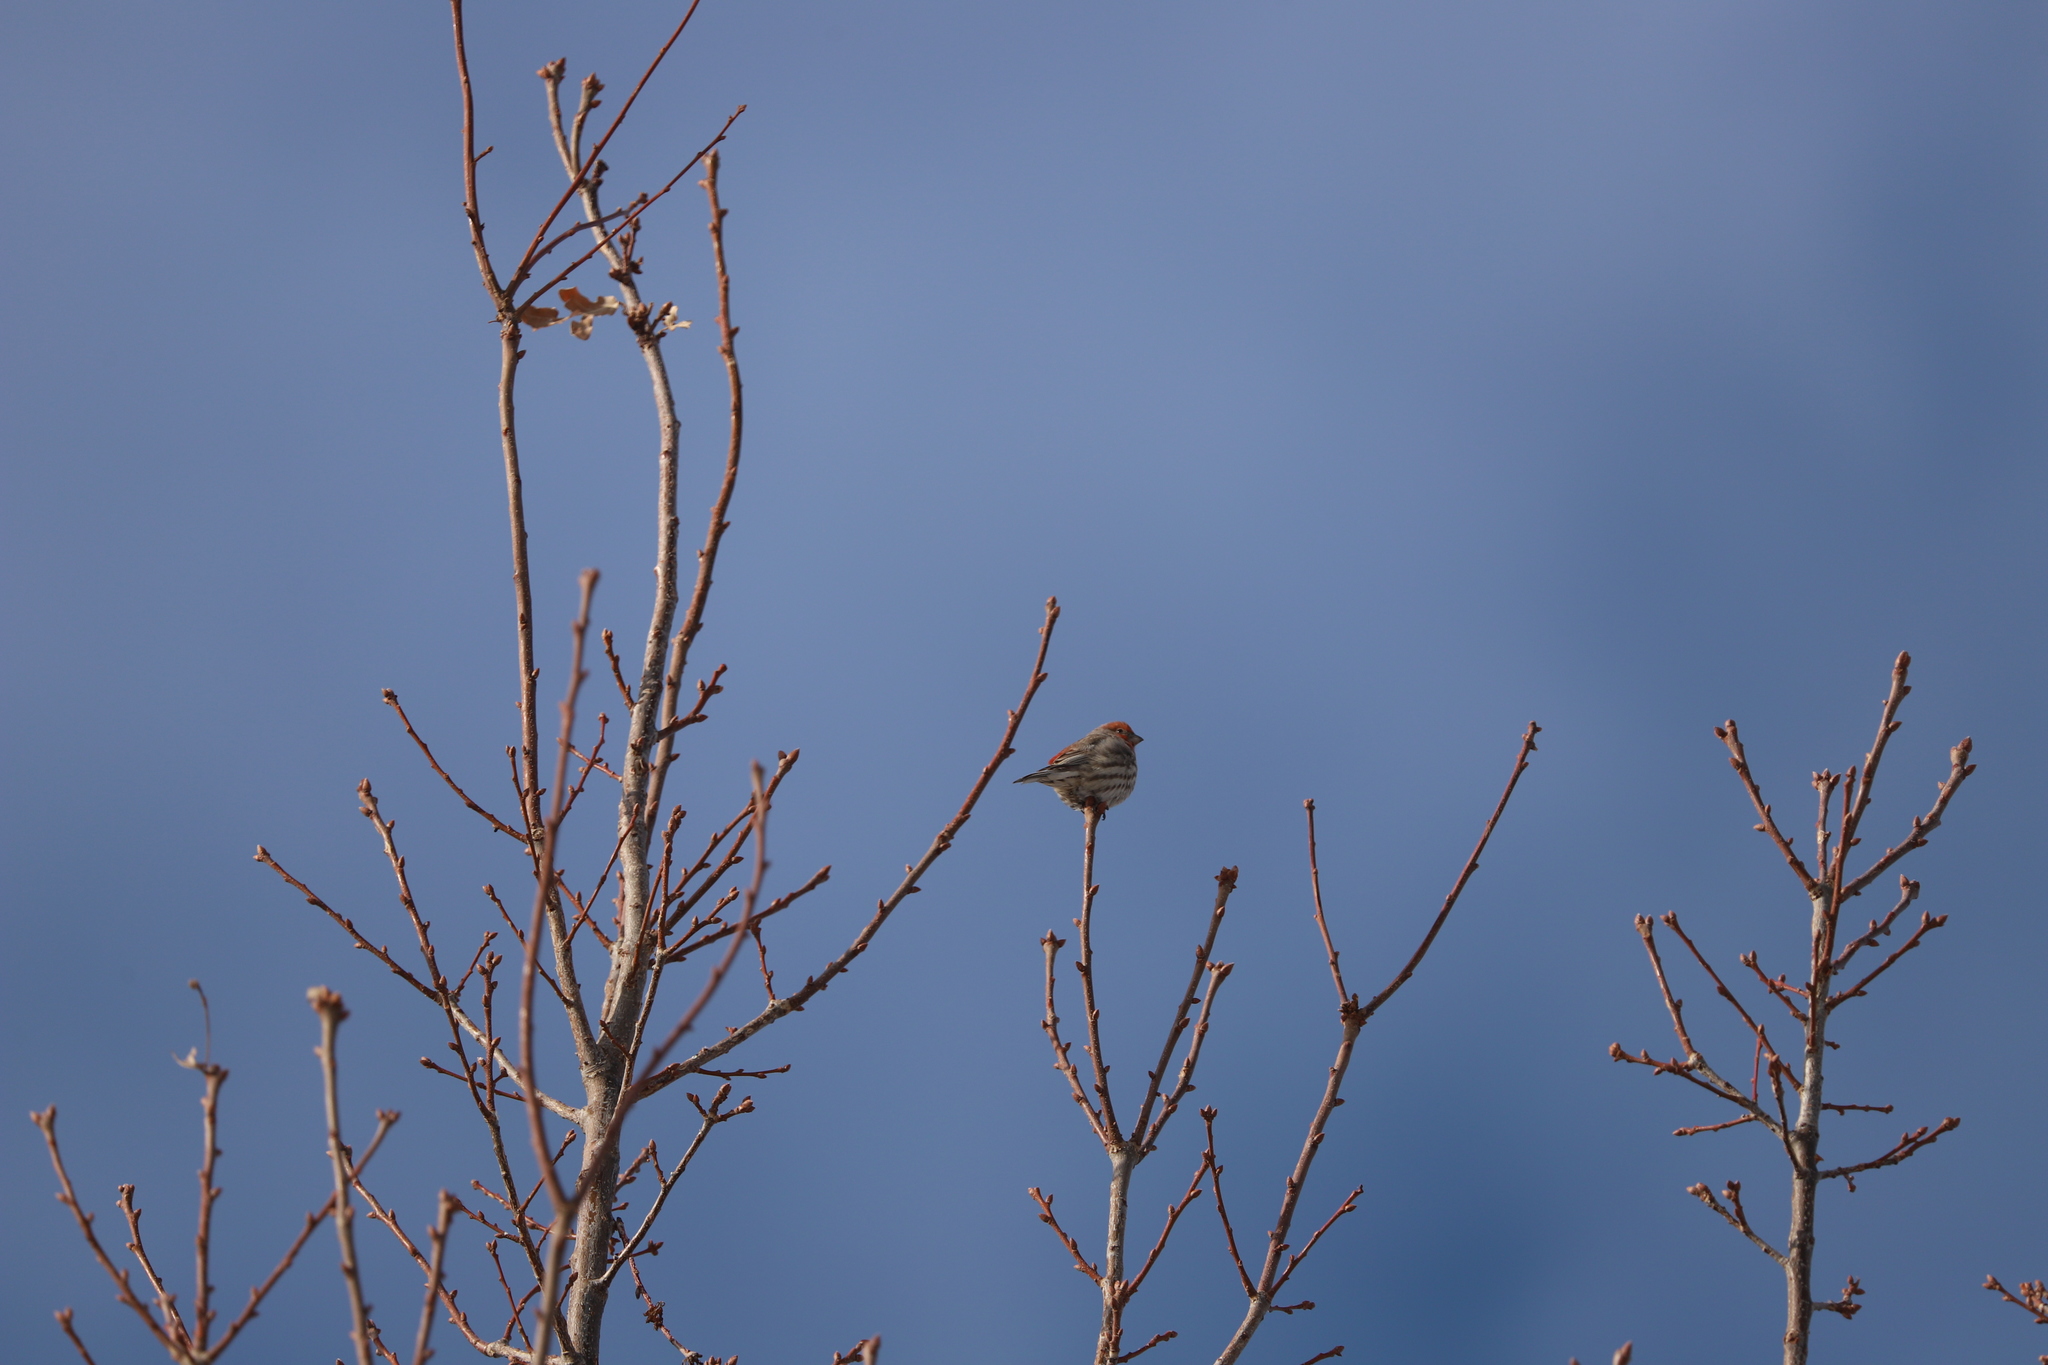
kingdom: Animalia
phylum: Chordata
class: Aves
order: Passeriformes
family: Fringillidae
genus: Haemorhous
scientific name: Haemorhous mexicanus
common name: House finch
